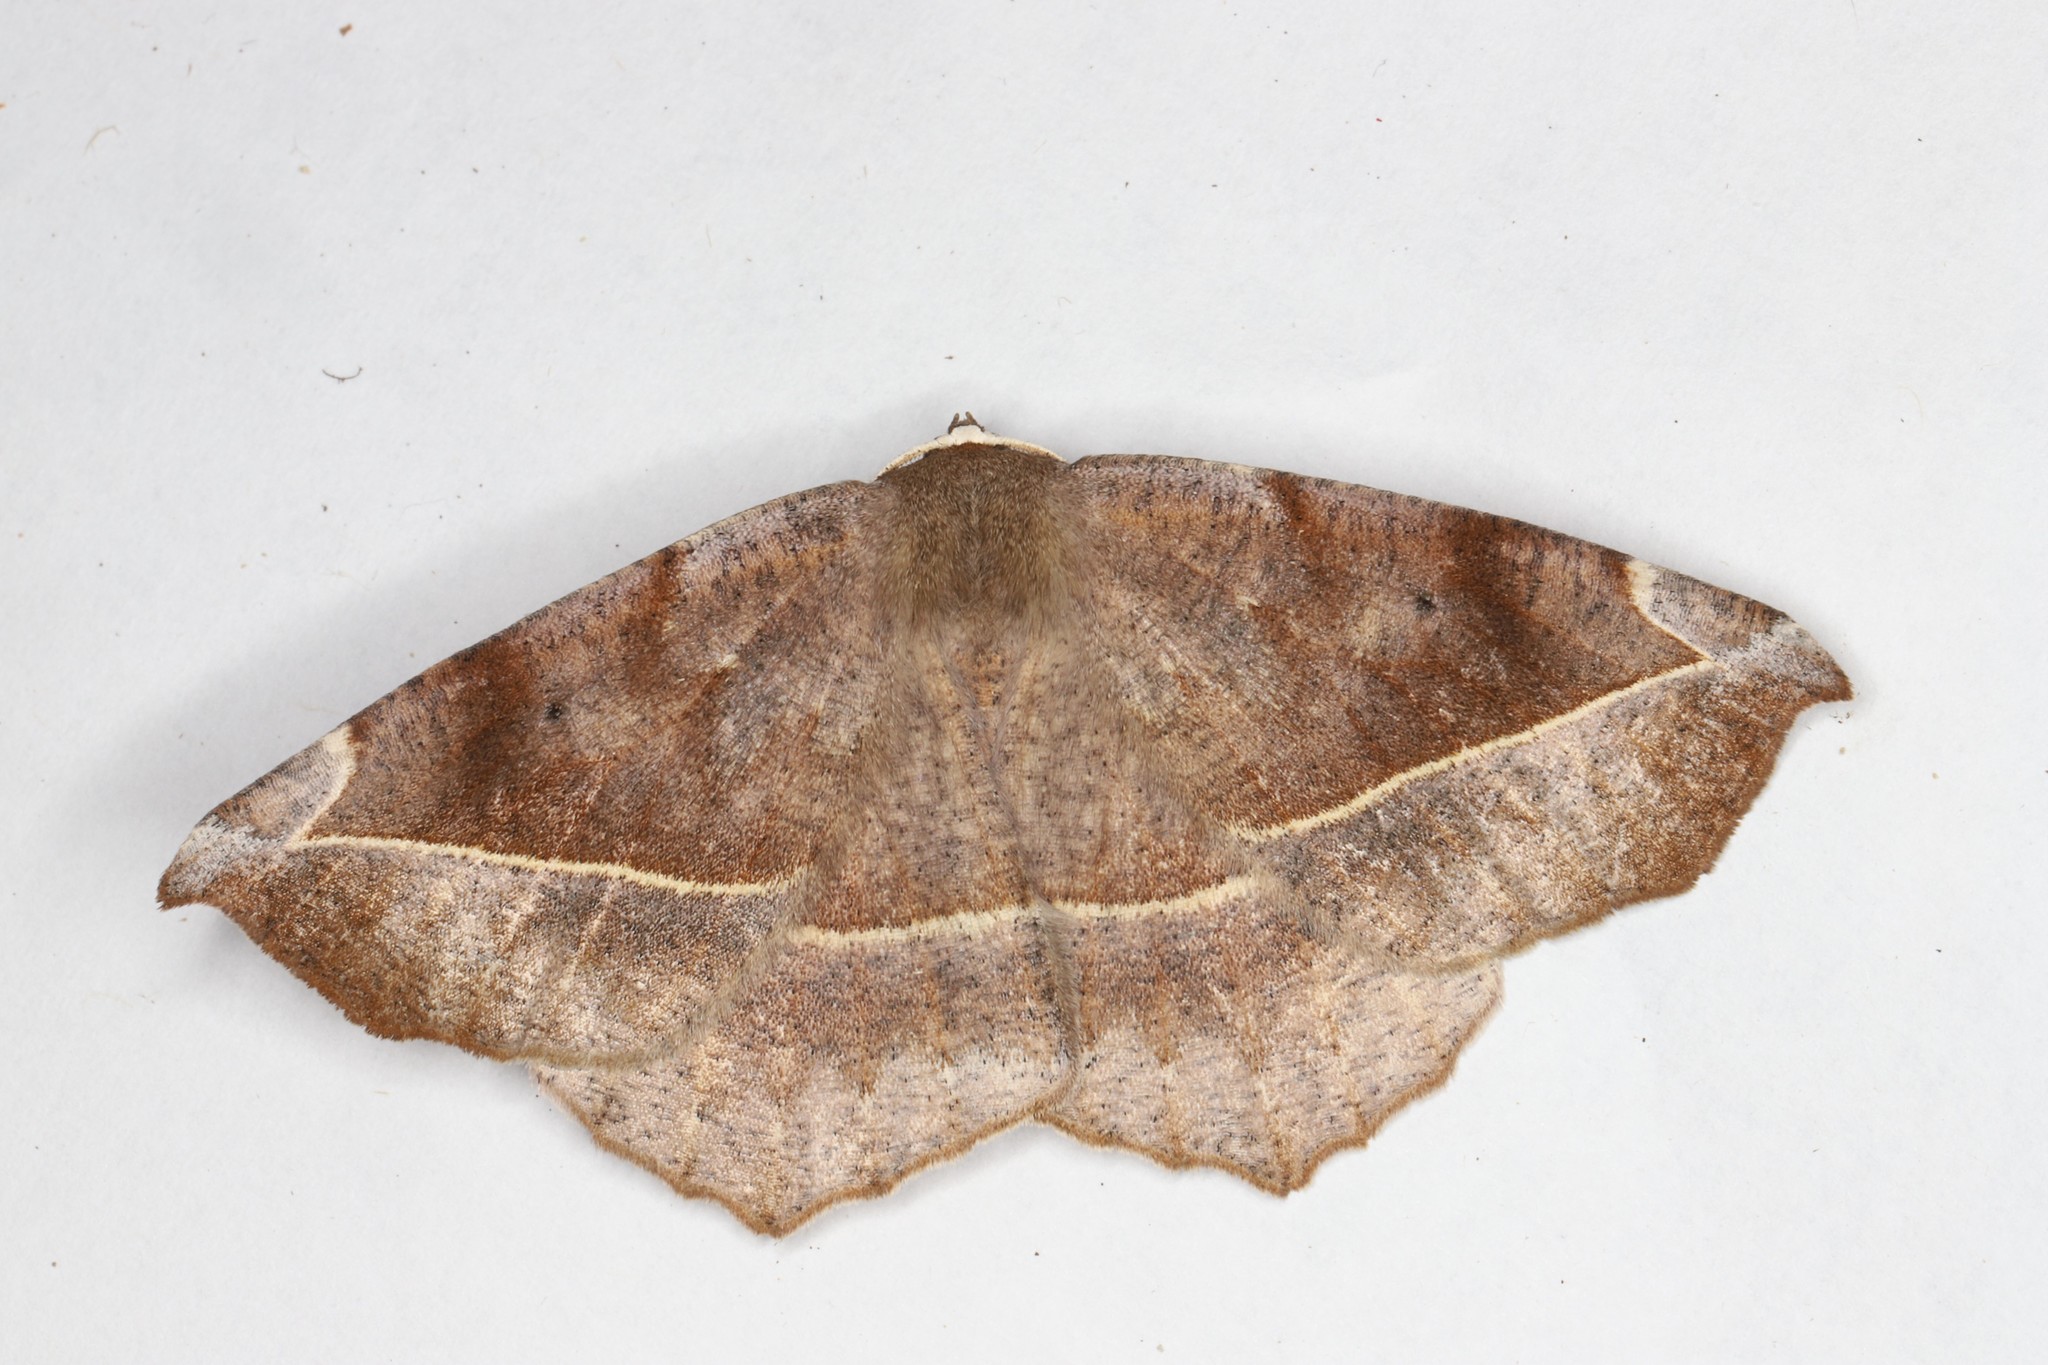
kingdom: Animalia
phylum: Arthropoda
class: Insecta
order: Lepidoptera
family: Geometridae
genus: Eutrapela
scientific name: Eutrapela clemataria
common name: Curved-toothed geometer
